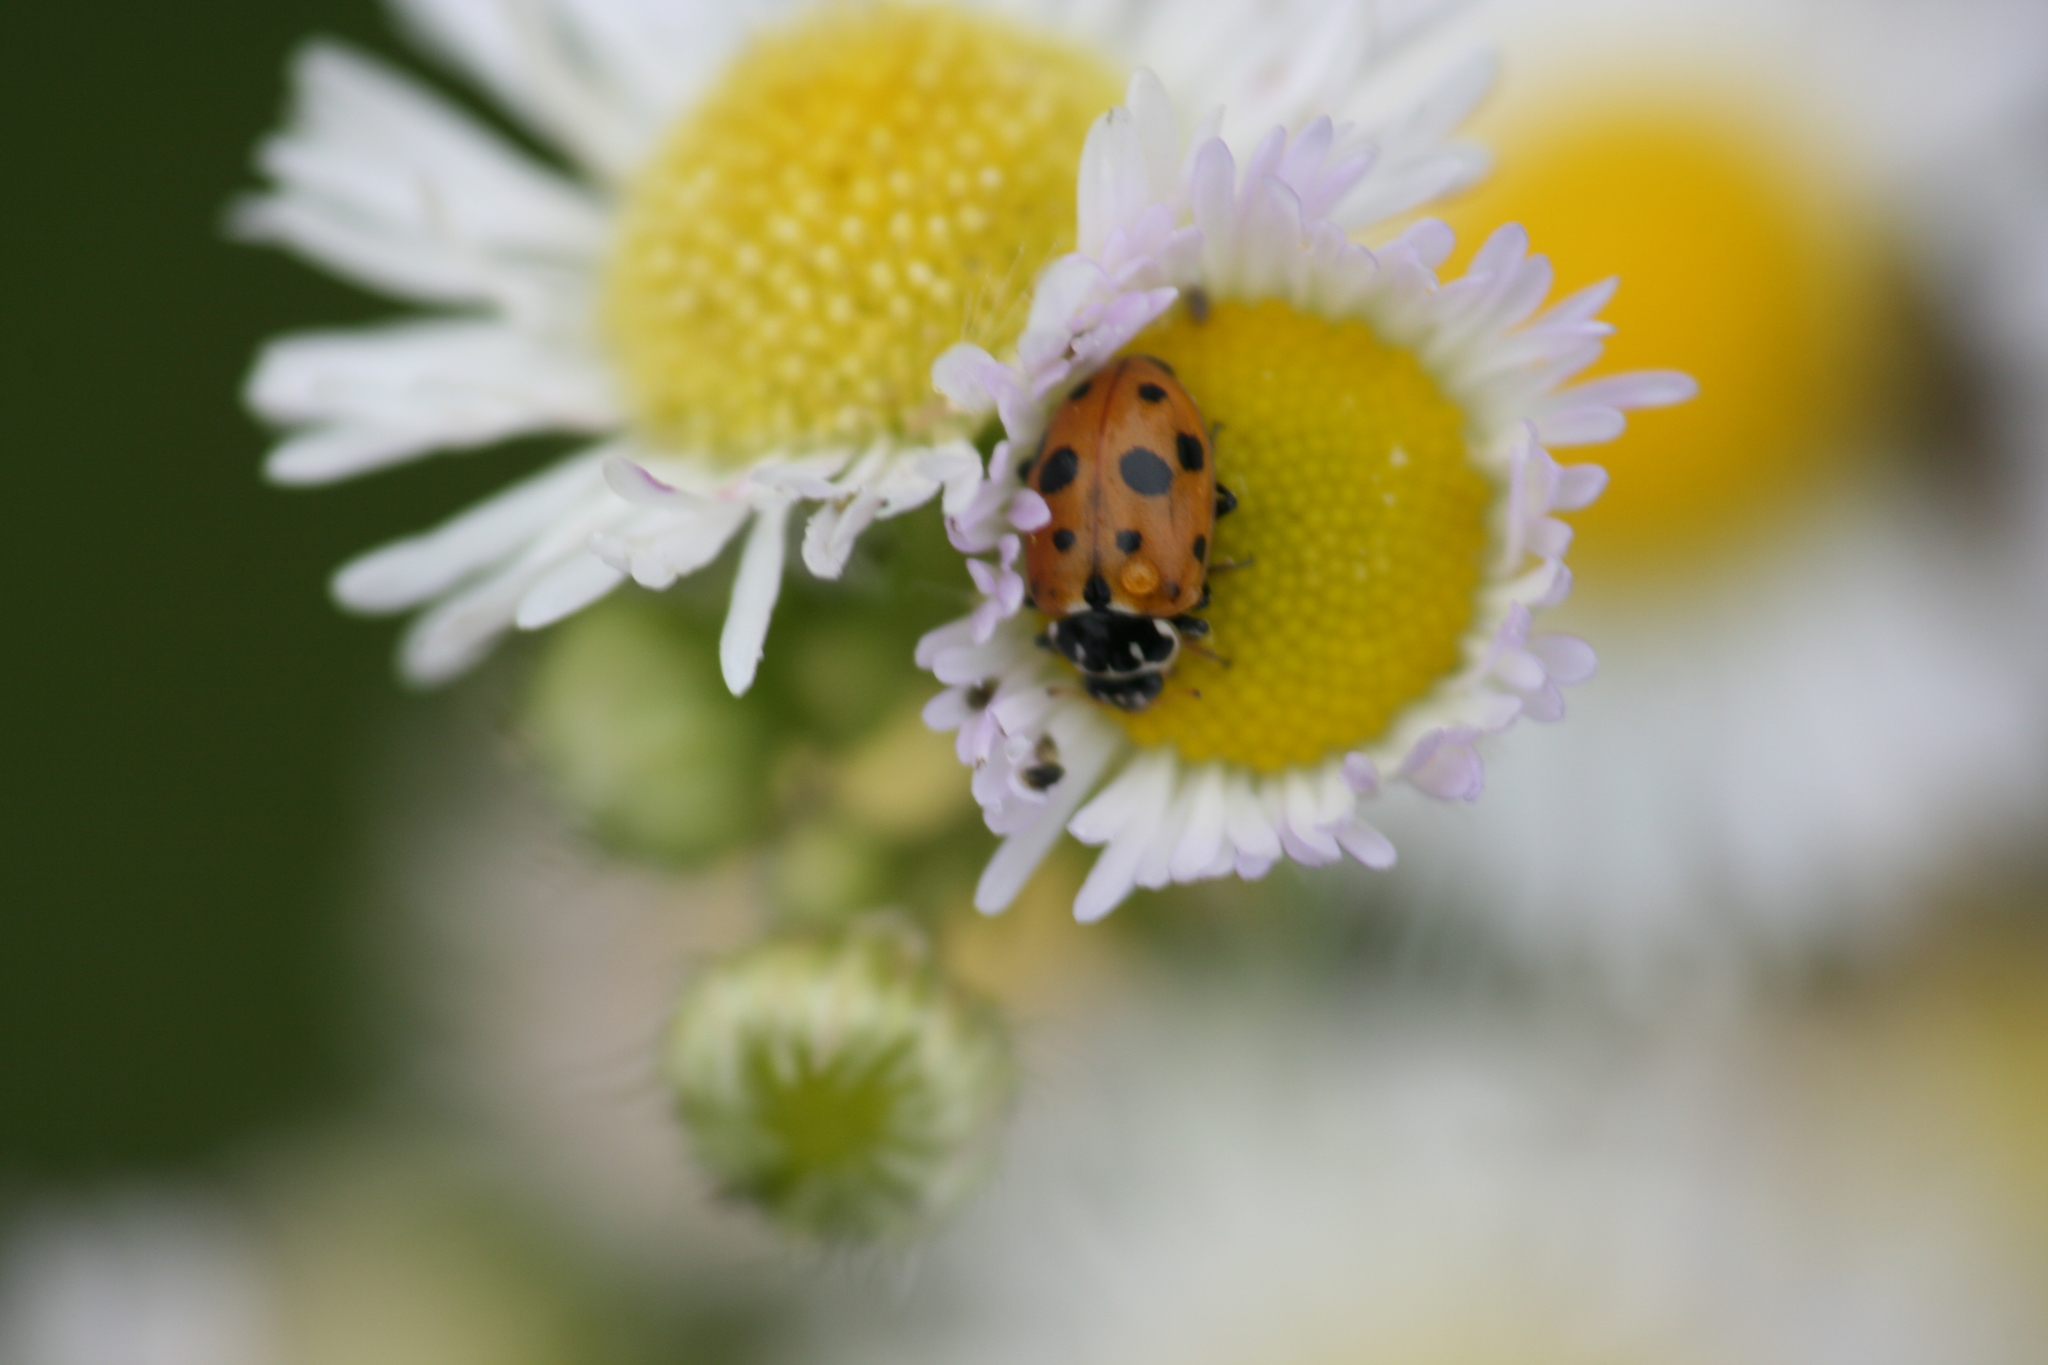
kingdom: Animalia
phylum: Arthropoda
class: Insecta
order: Coleoptera
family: Coccinellidae
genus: Hippodamia
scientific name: Hippodamia variegata
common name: Ladybird beetle
